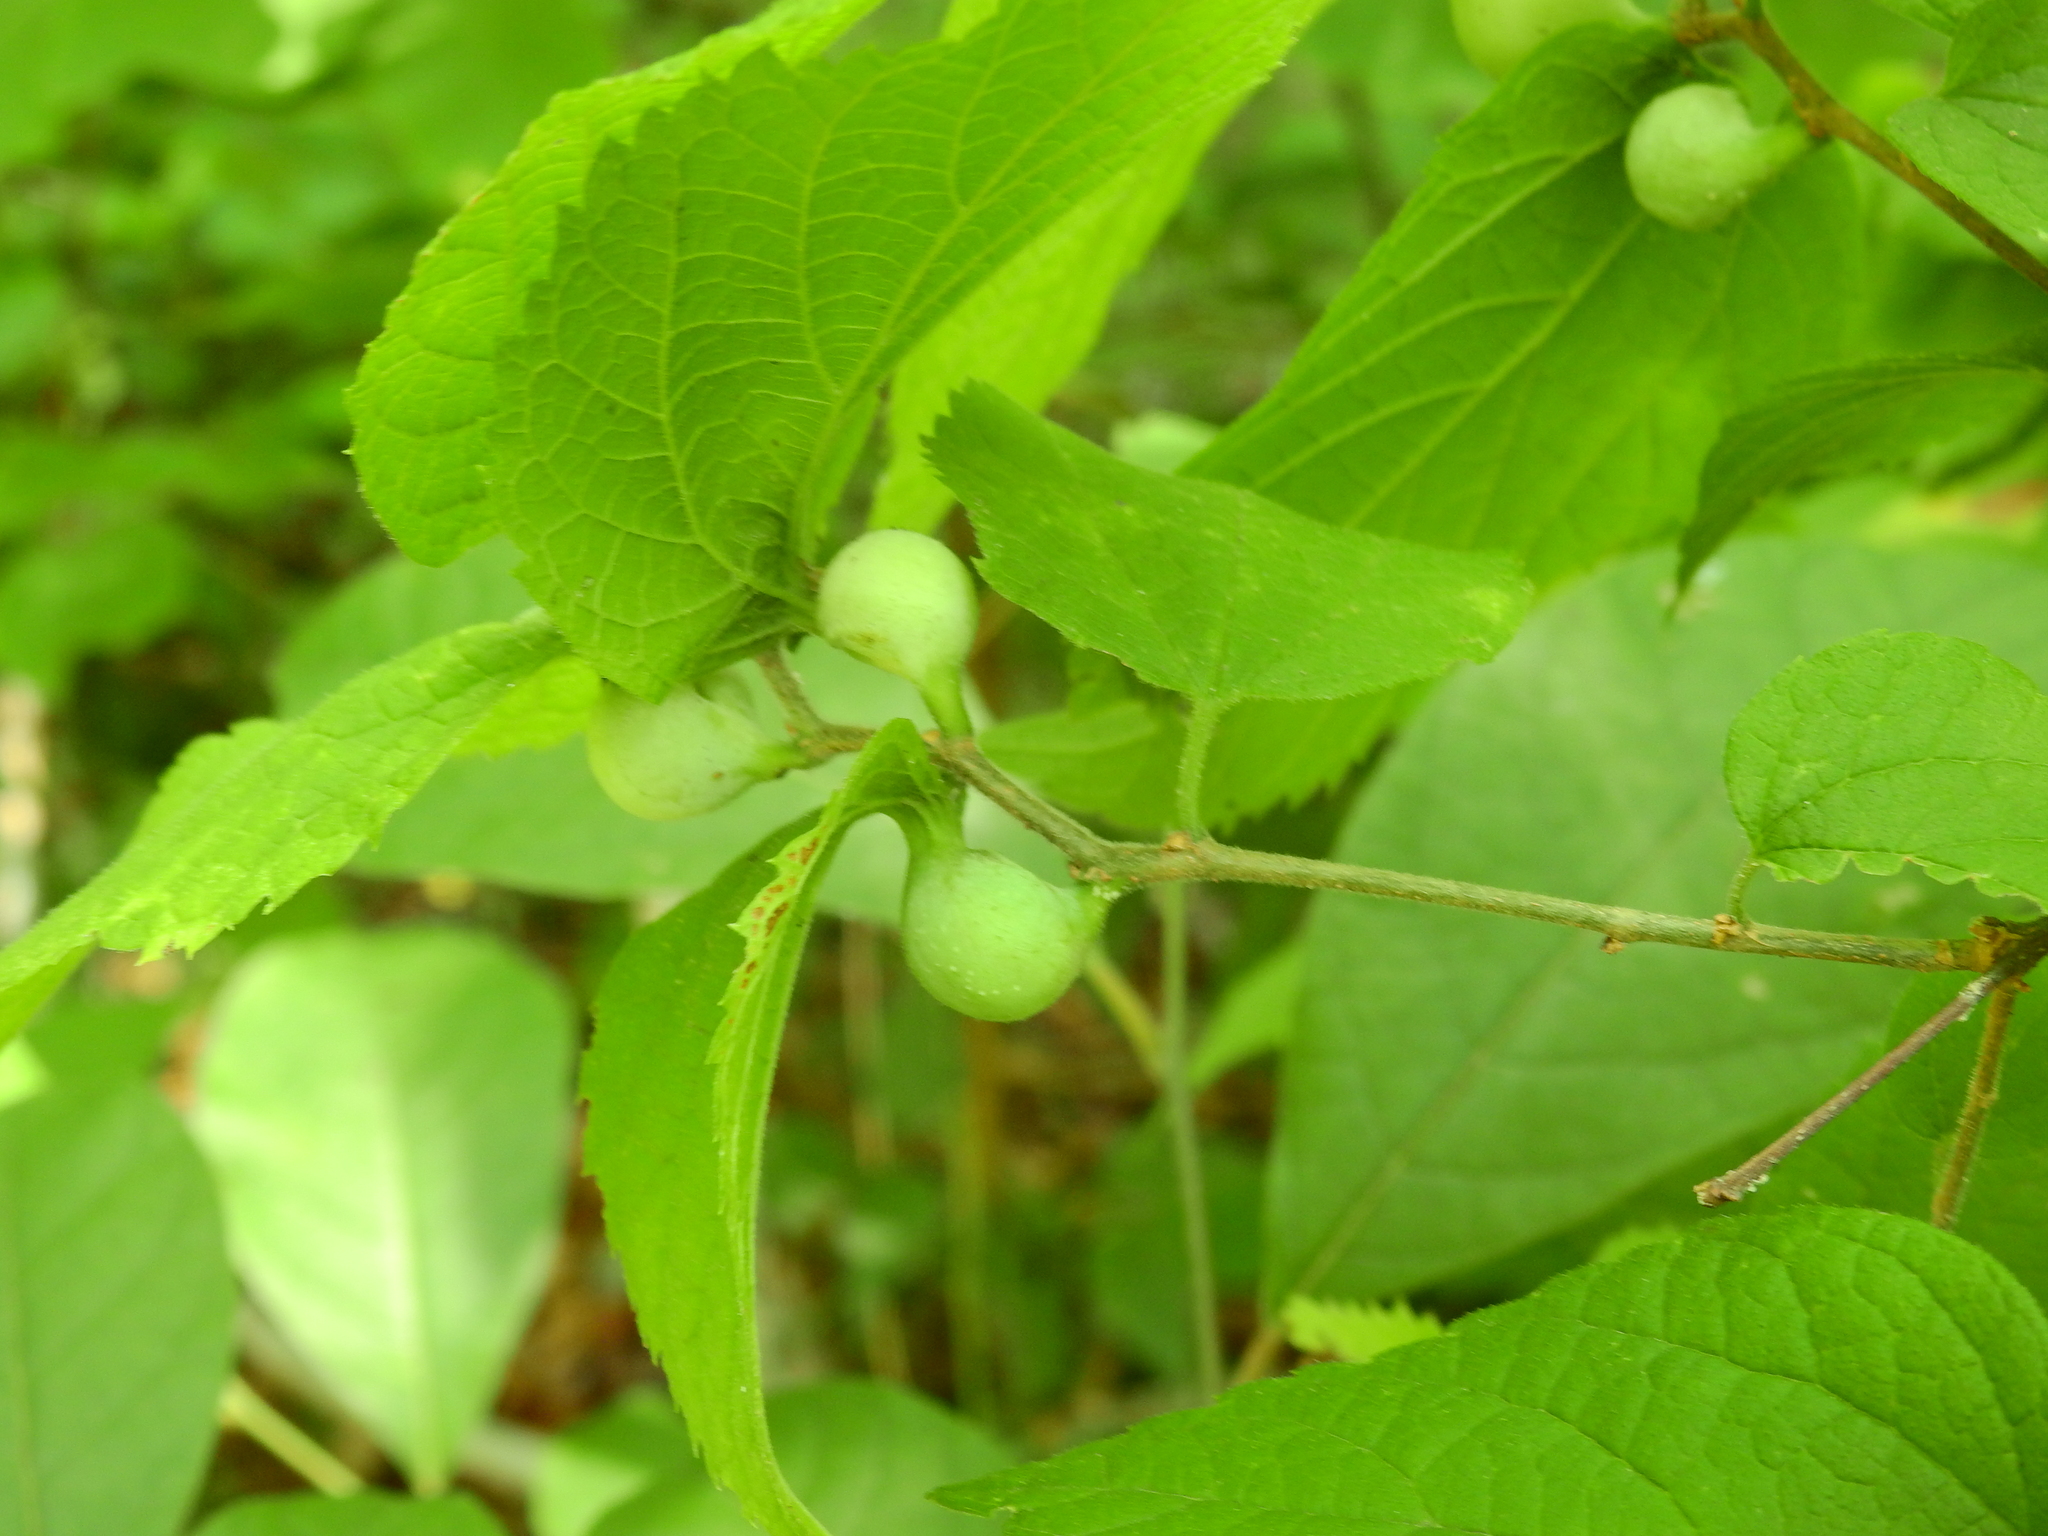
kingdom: Animalia
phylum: Arthropoda
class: Insecta
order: Hemiptera
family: Aphalaridae
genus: Pachypsylla
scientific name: Pachypsylla venusta
